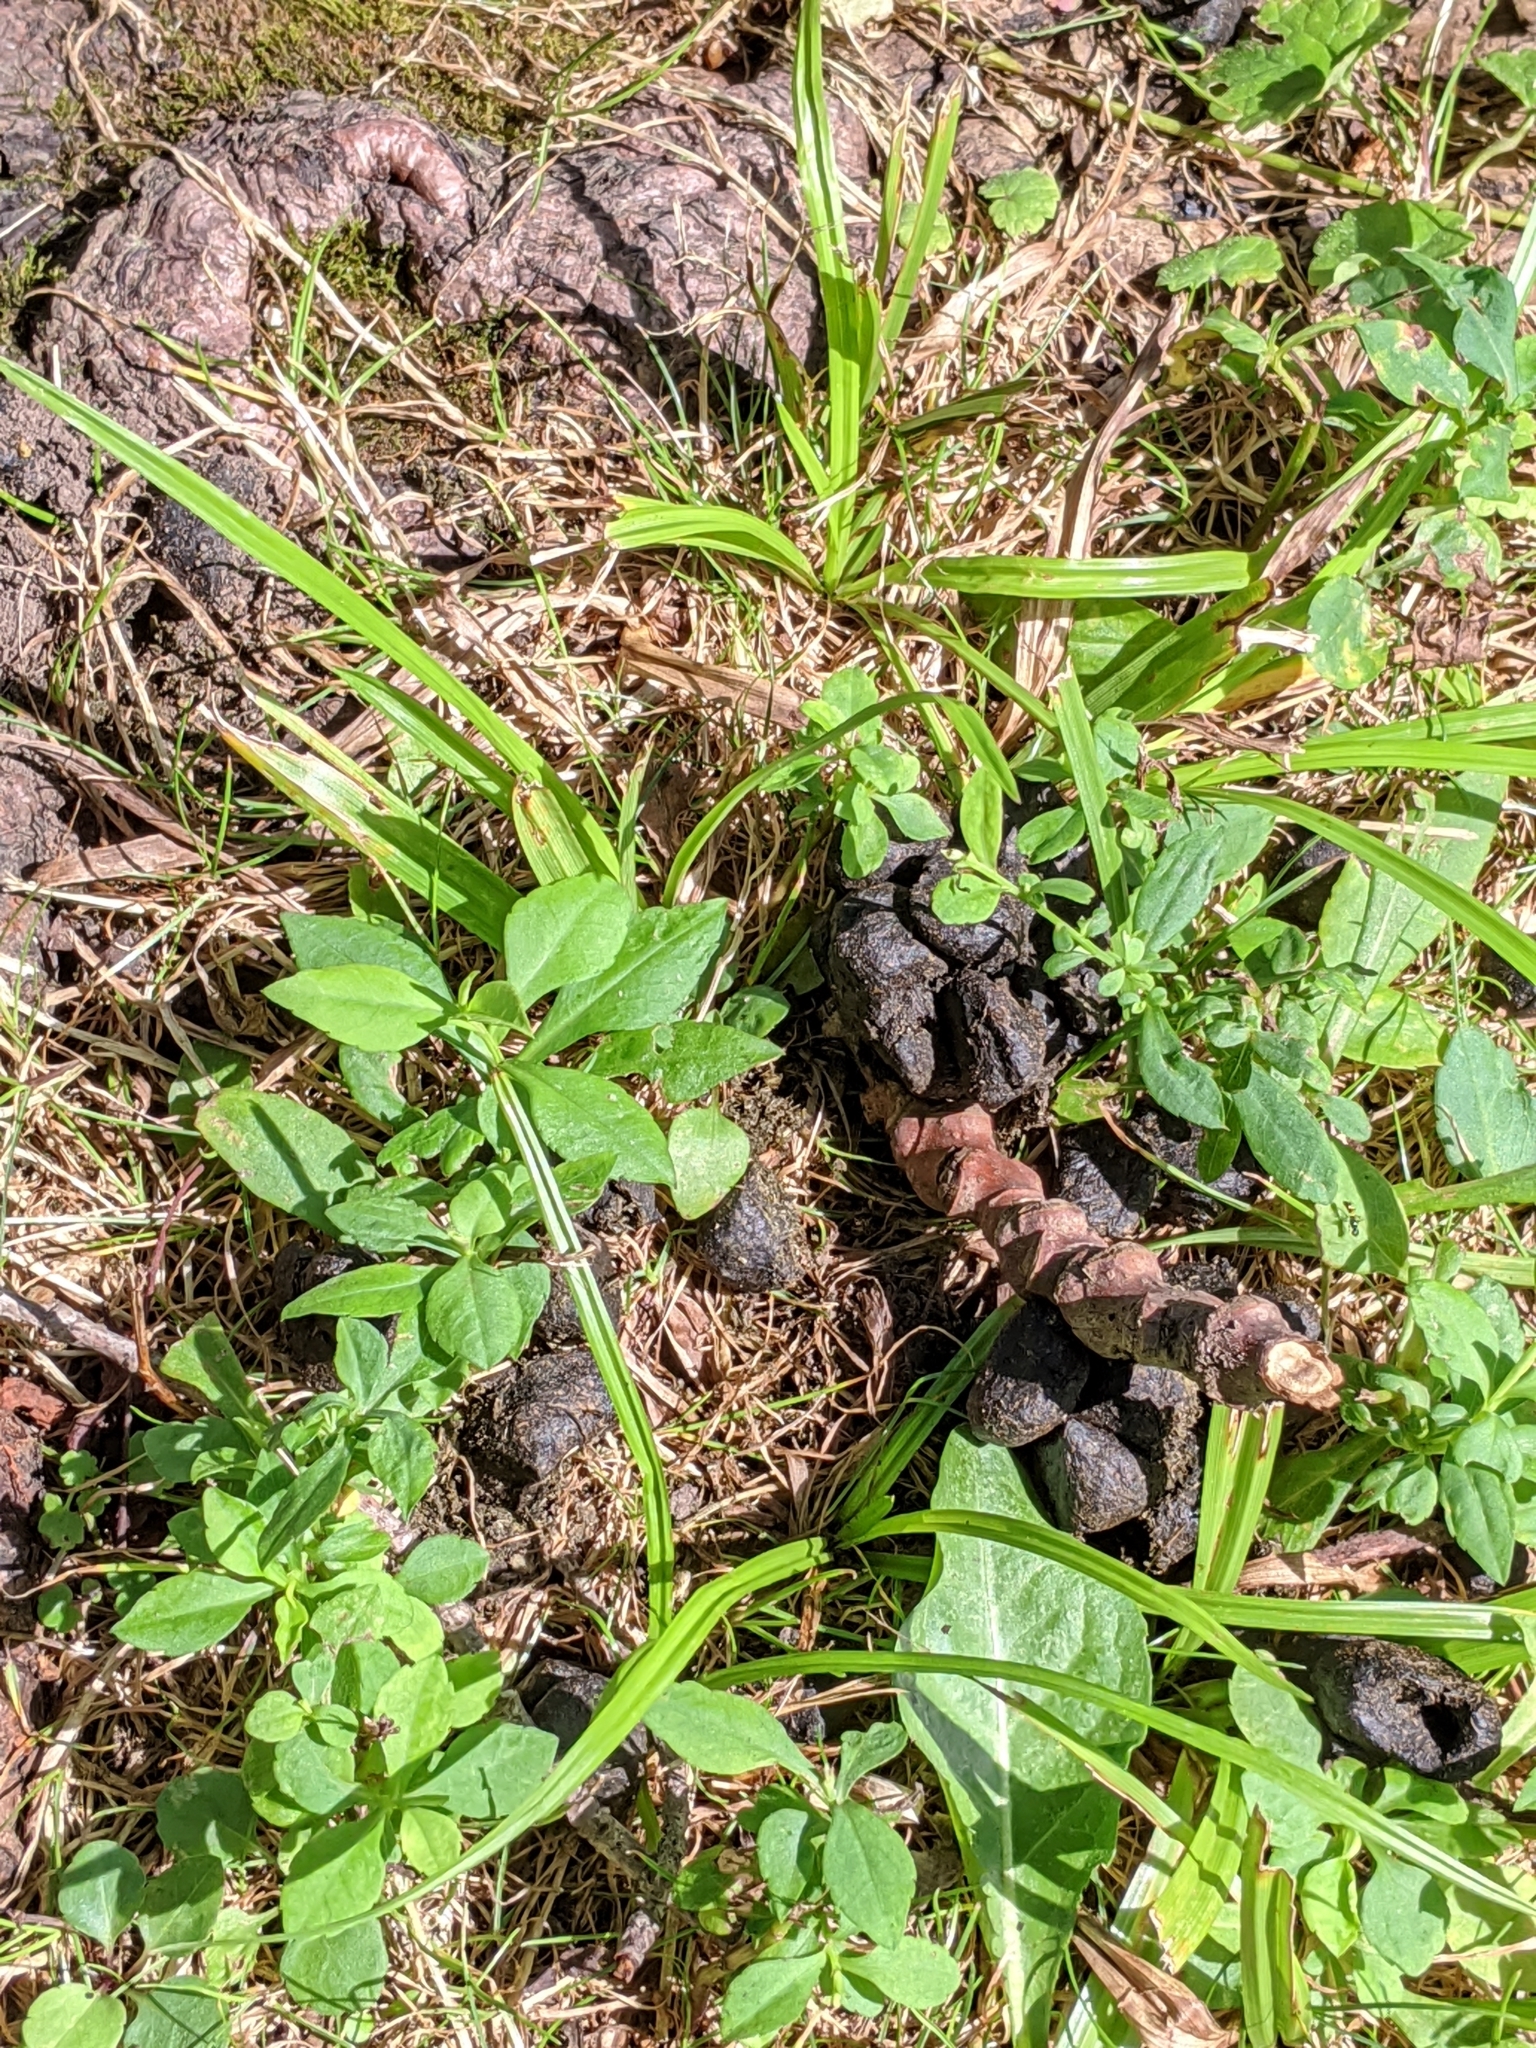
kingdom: Animalia
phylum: Chordata
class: Mammalia
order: Artiodactyla
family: Cervidae
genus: Odocoileus
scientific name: Odocoileus virginianus
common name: White-tailed deer
